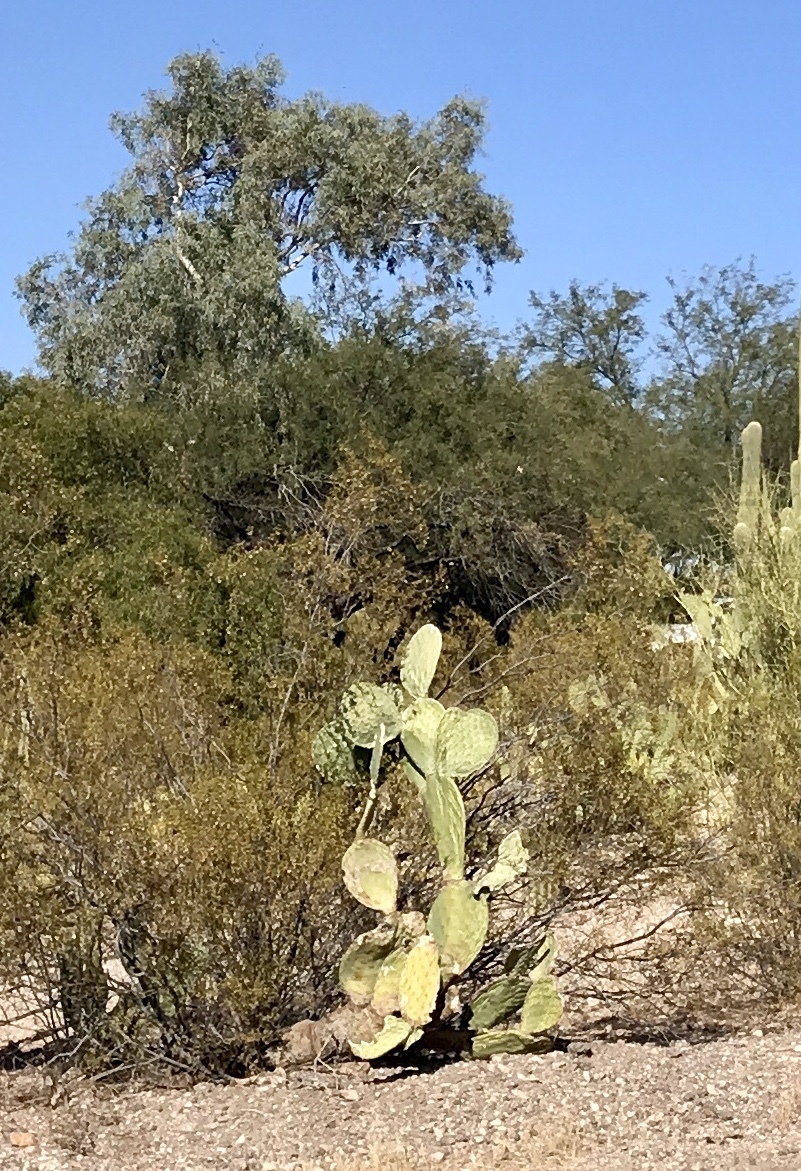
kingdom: Plantae
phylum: Tracheophyta
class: Magnoliopsida
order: Caryophyllales
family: Cactaceae
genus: Opuntia
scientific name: Opuntia engelmannii
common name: Cactus-apple
